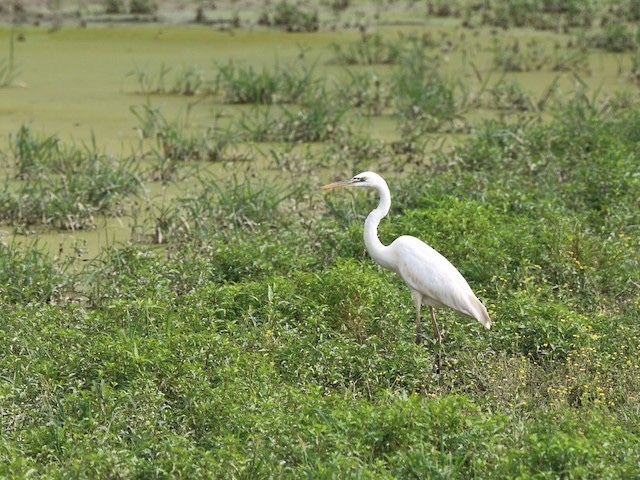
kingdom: Animalia
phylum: Chordata
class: Aves
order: Pelecaniformes
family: Ardeidae
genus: Ardea
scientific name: Ardea herodias
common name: Great blue heron
